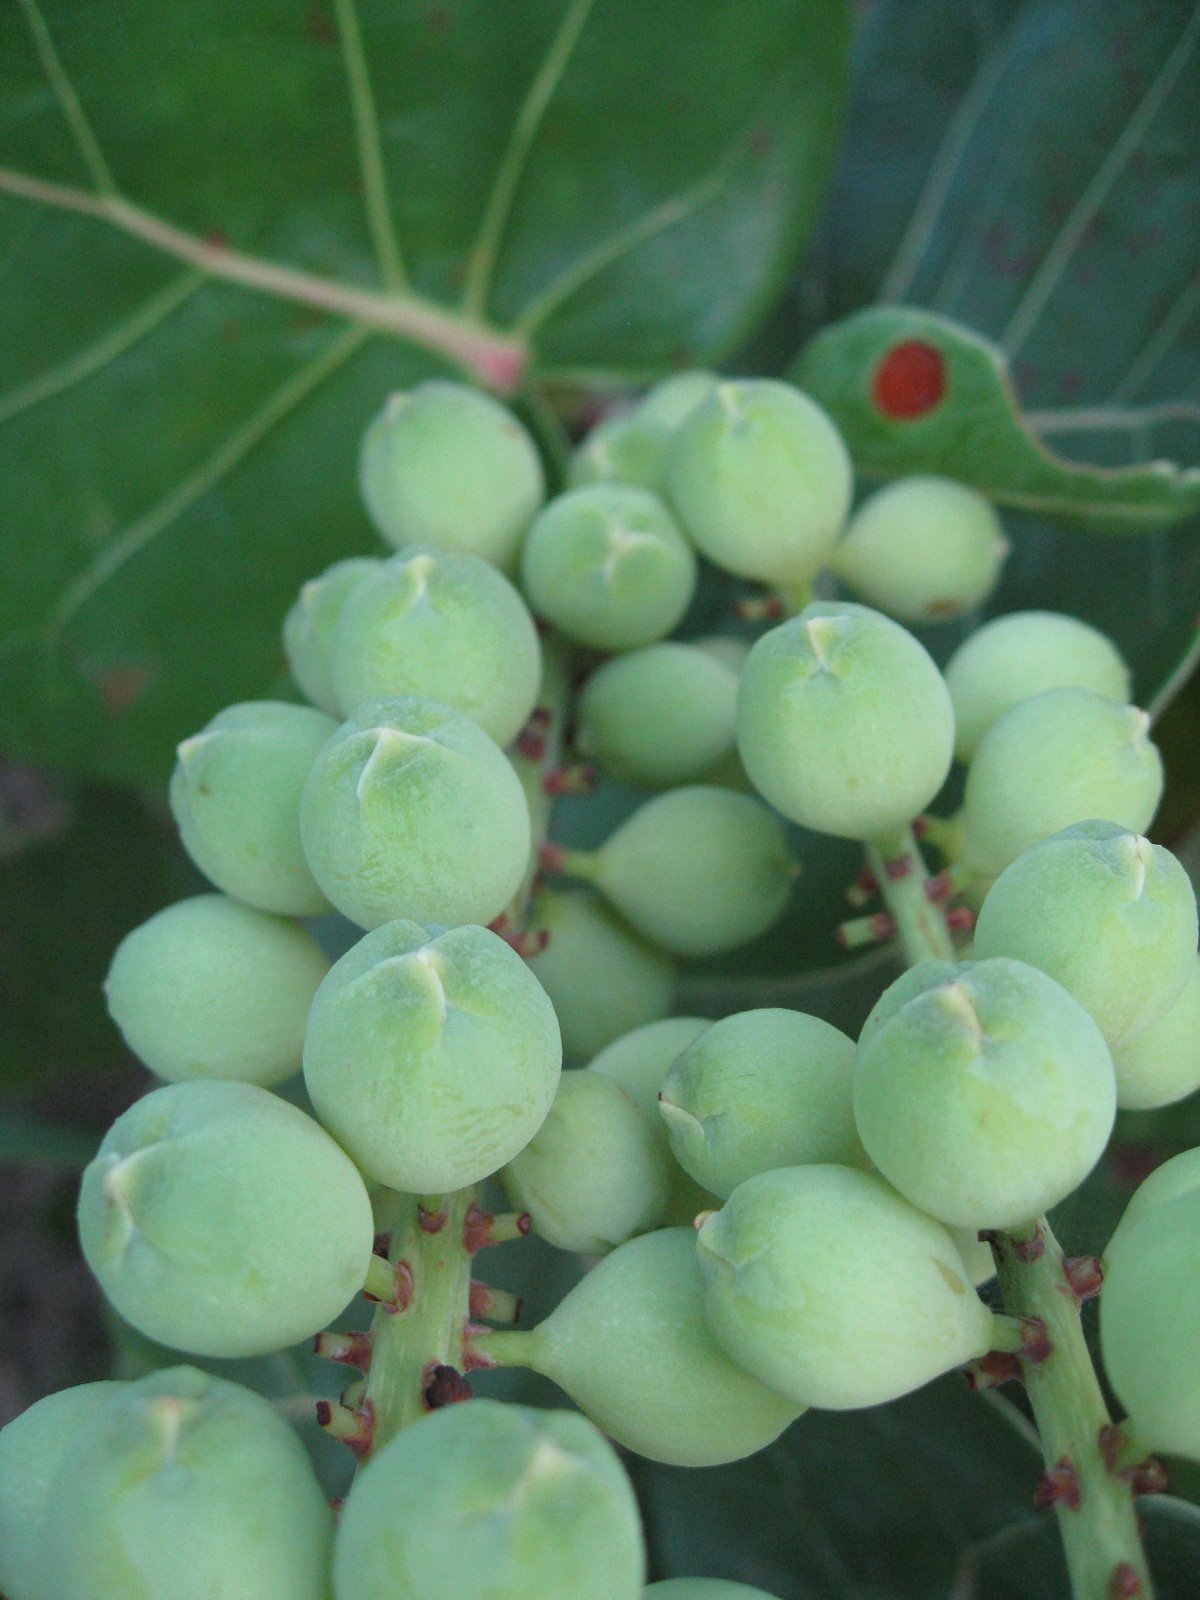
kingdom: Plantae
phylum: Tracheophyta
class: Magnoliopsida
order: Caryophyllales
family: Polygonaceae
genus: Coccoloba
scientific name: Coccoloba uvifera
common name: Seagrape
